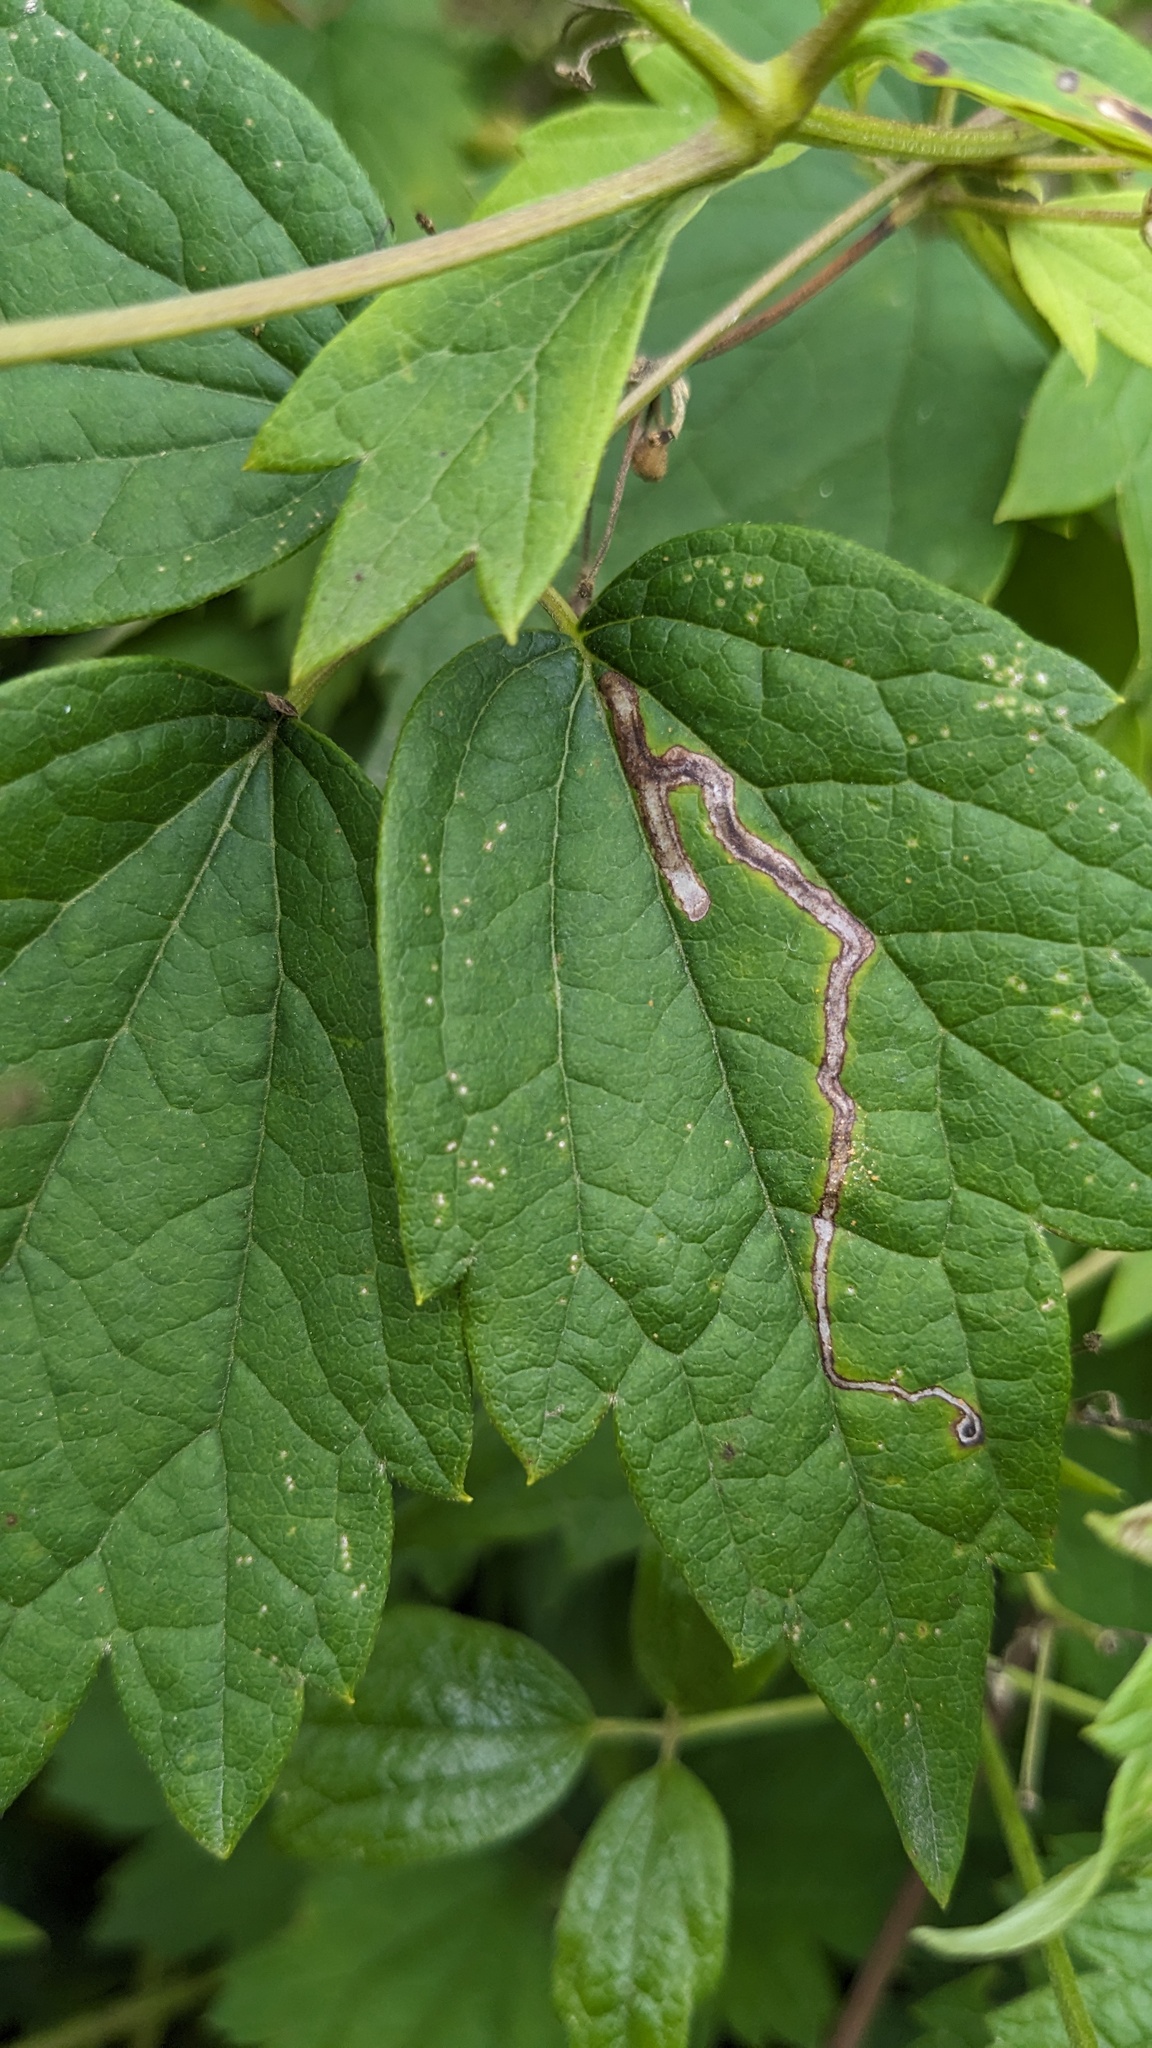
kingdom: Animalia
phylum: Arthropoda
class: Insecta
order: Diptera
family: Agromyzidae
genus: Phytomyza
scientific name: Phytomyza loewii
